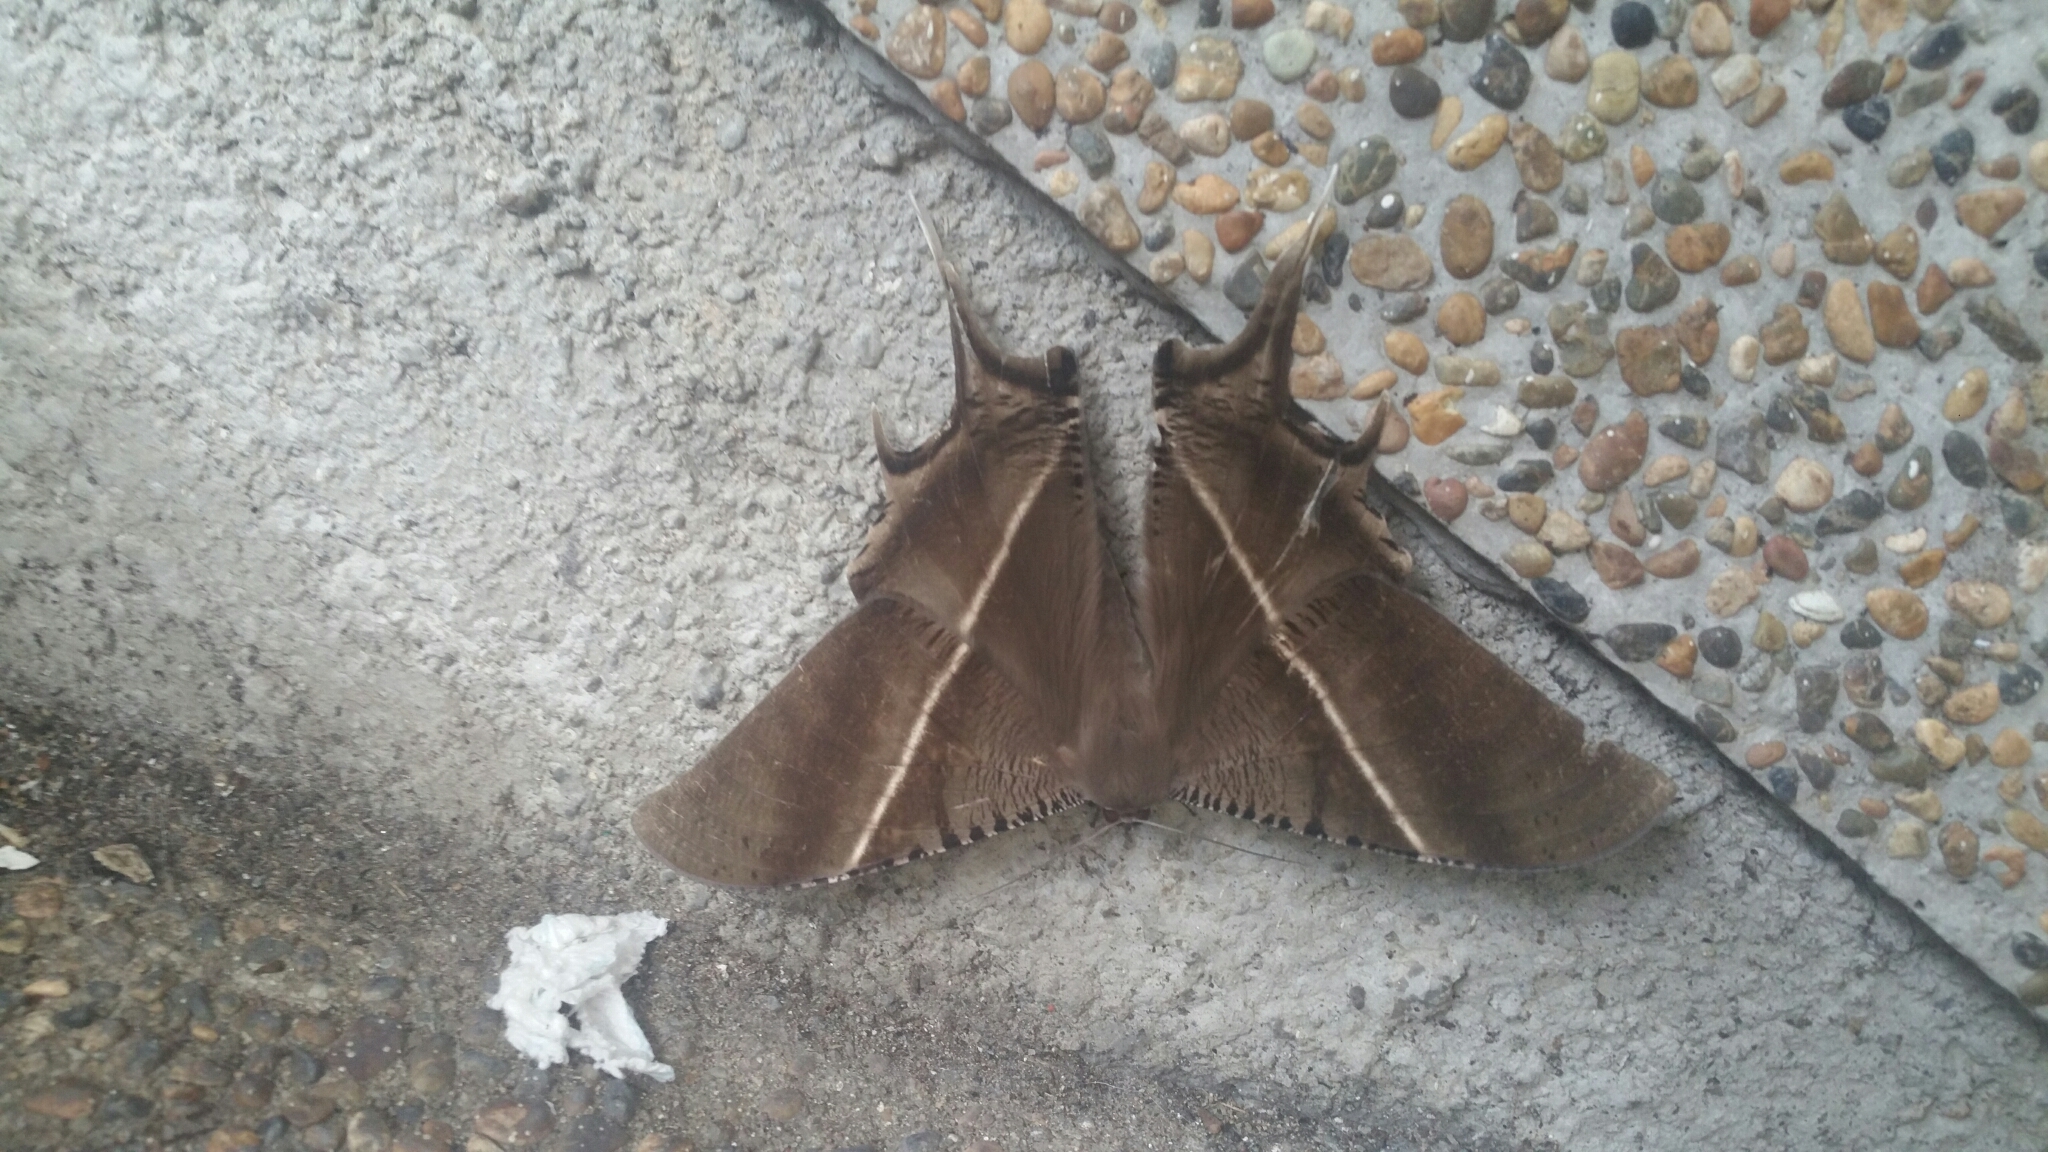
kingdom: Animalia
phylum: Arthropoda
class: Insecta
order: Lepidoptera
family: Uraniidae
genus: Lyssa
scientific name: Lyssa zampa
